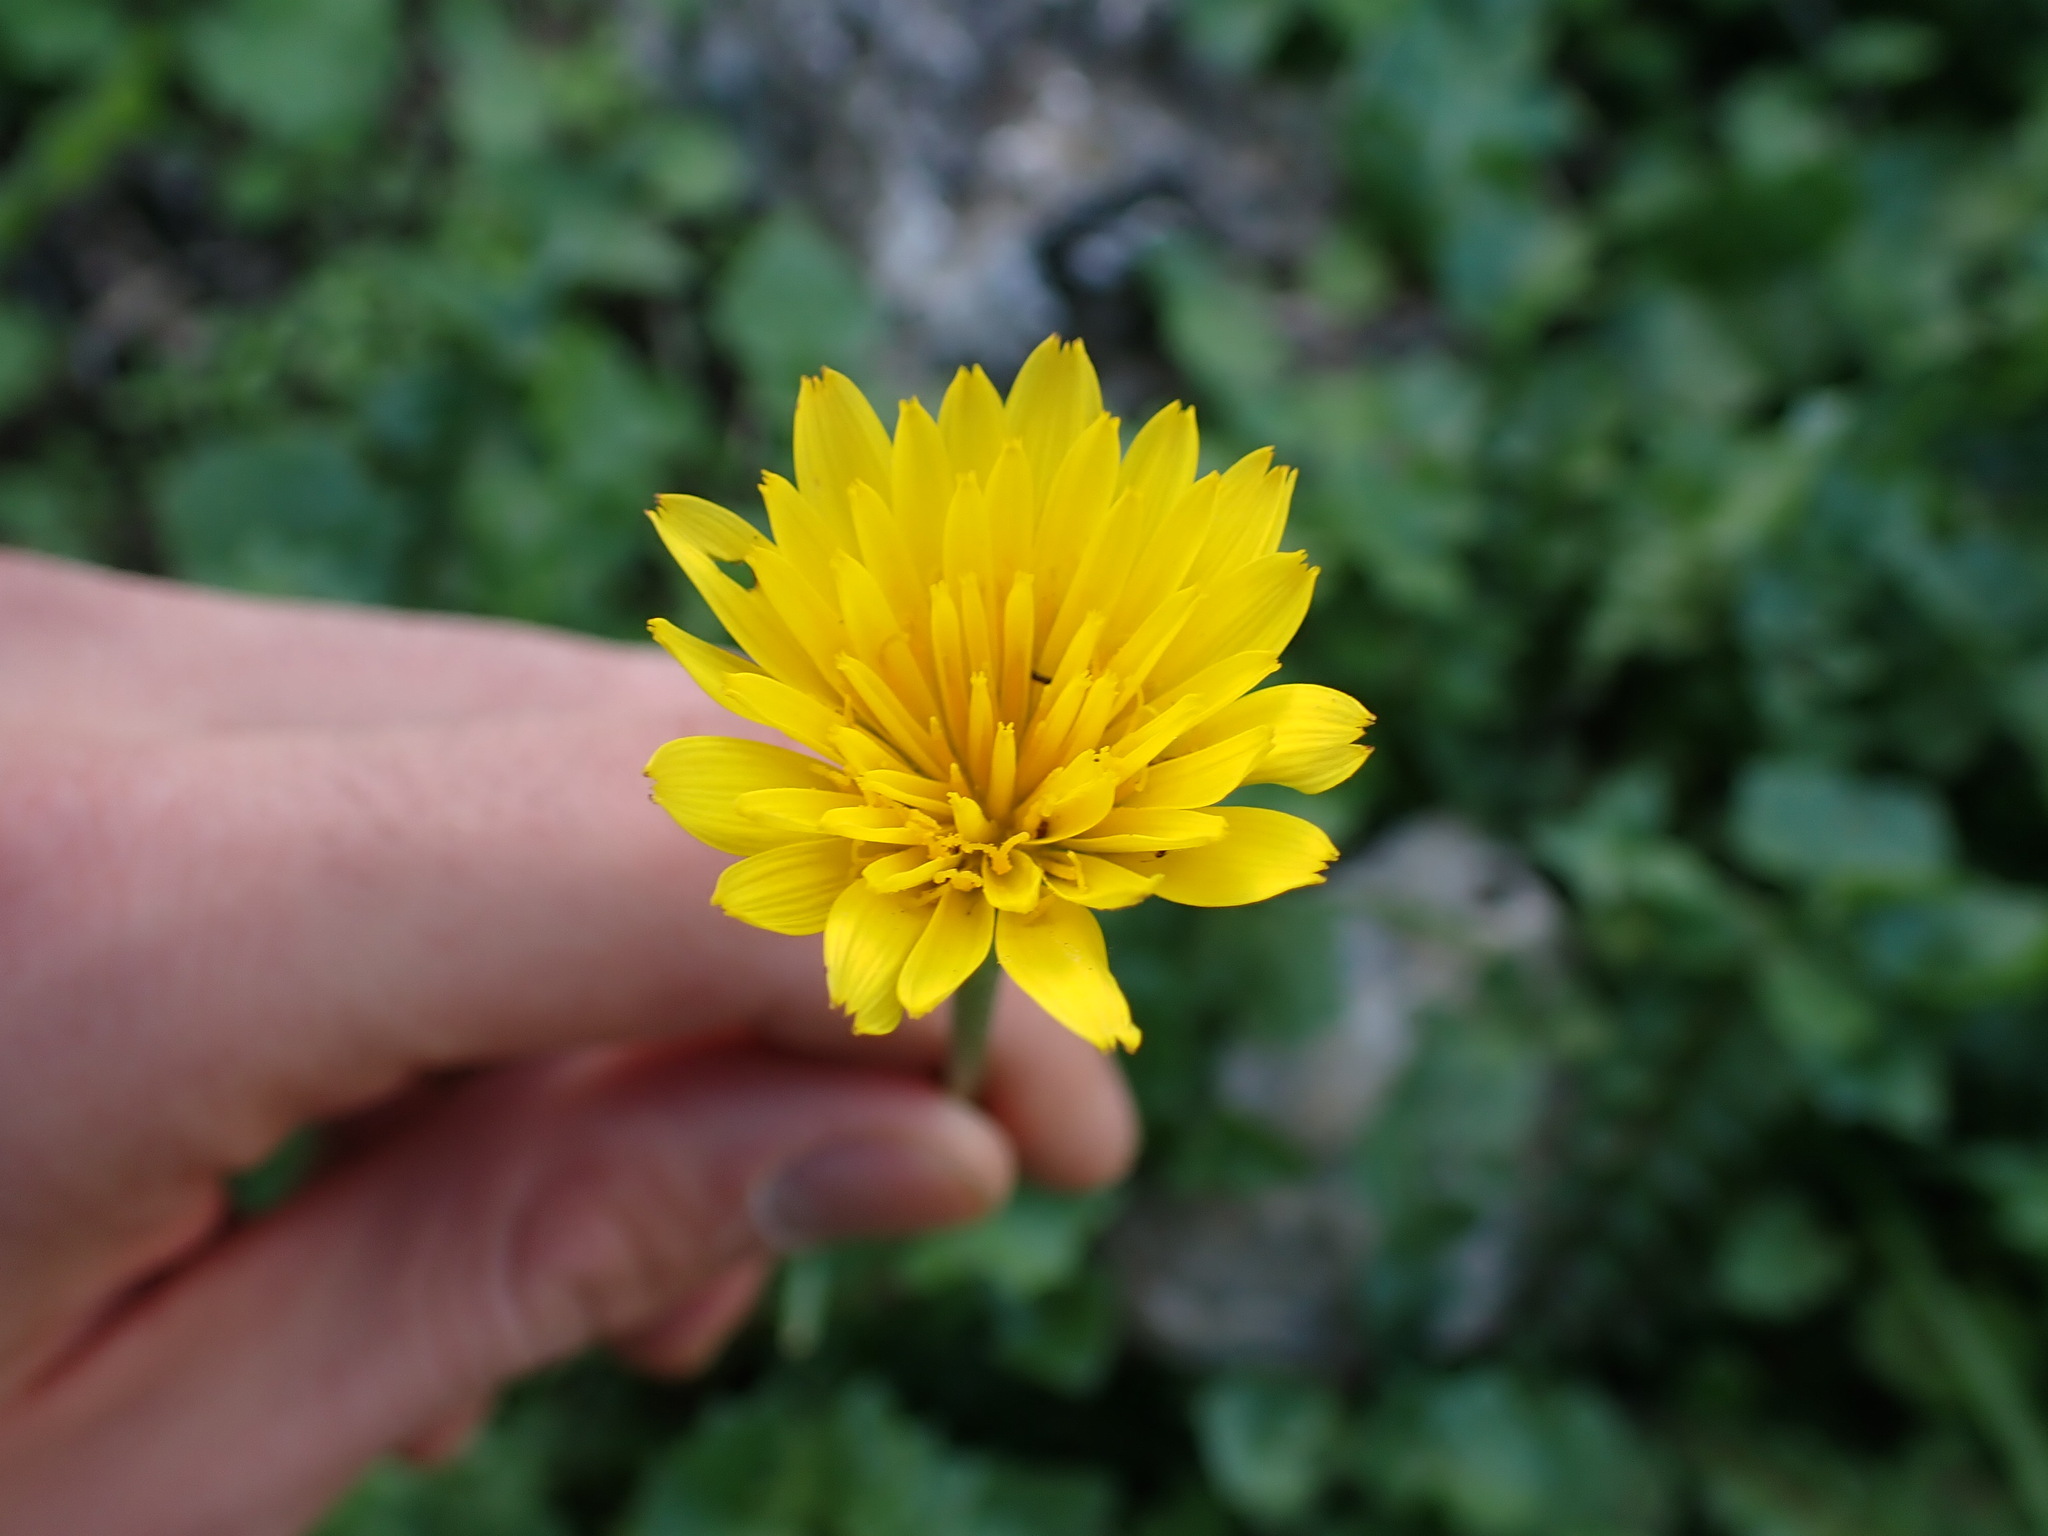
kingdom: Plantae
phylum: Tracheophyta
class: Magnoliopsida
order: Asterales
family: Asteraceae
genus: Hyoseris
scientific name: Hyoseris radiata
